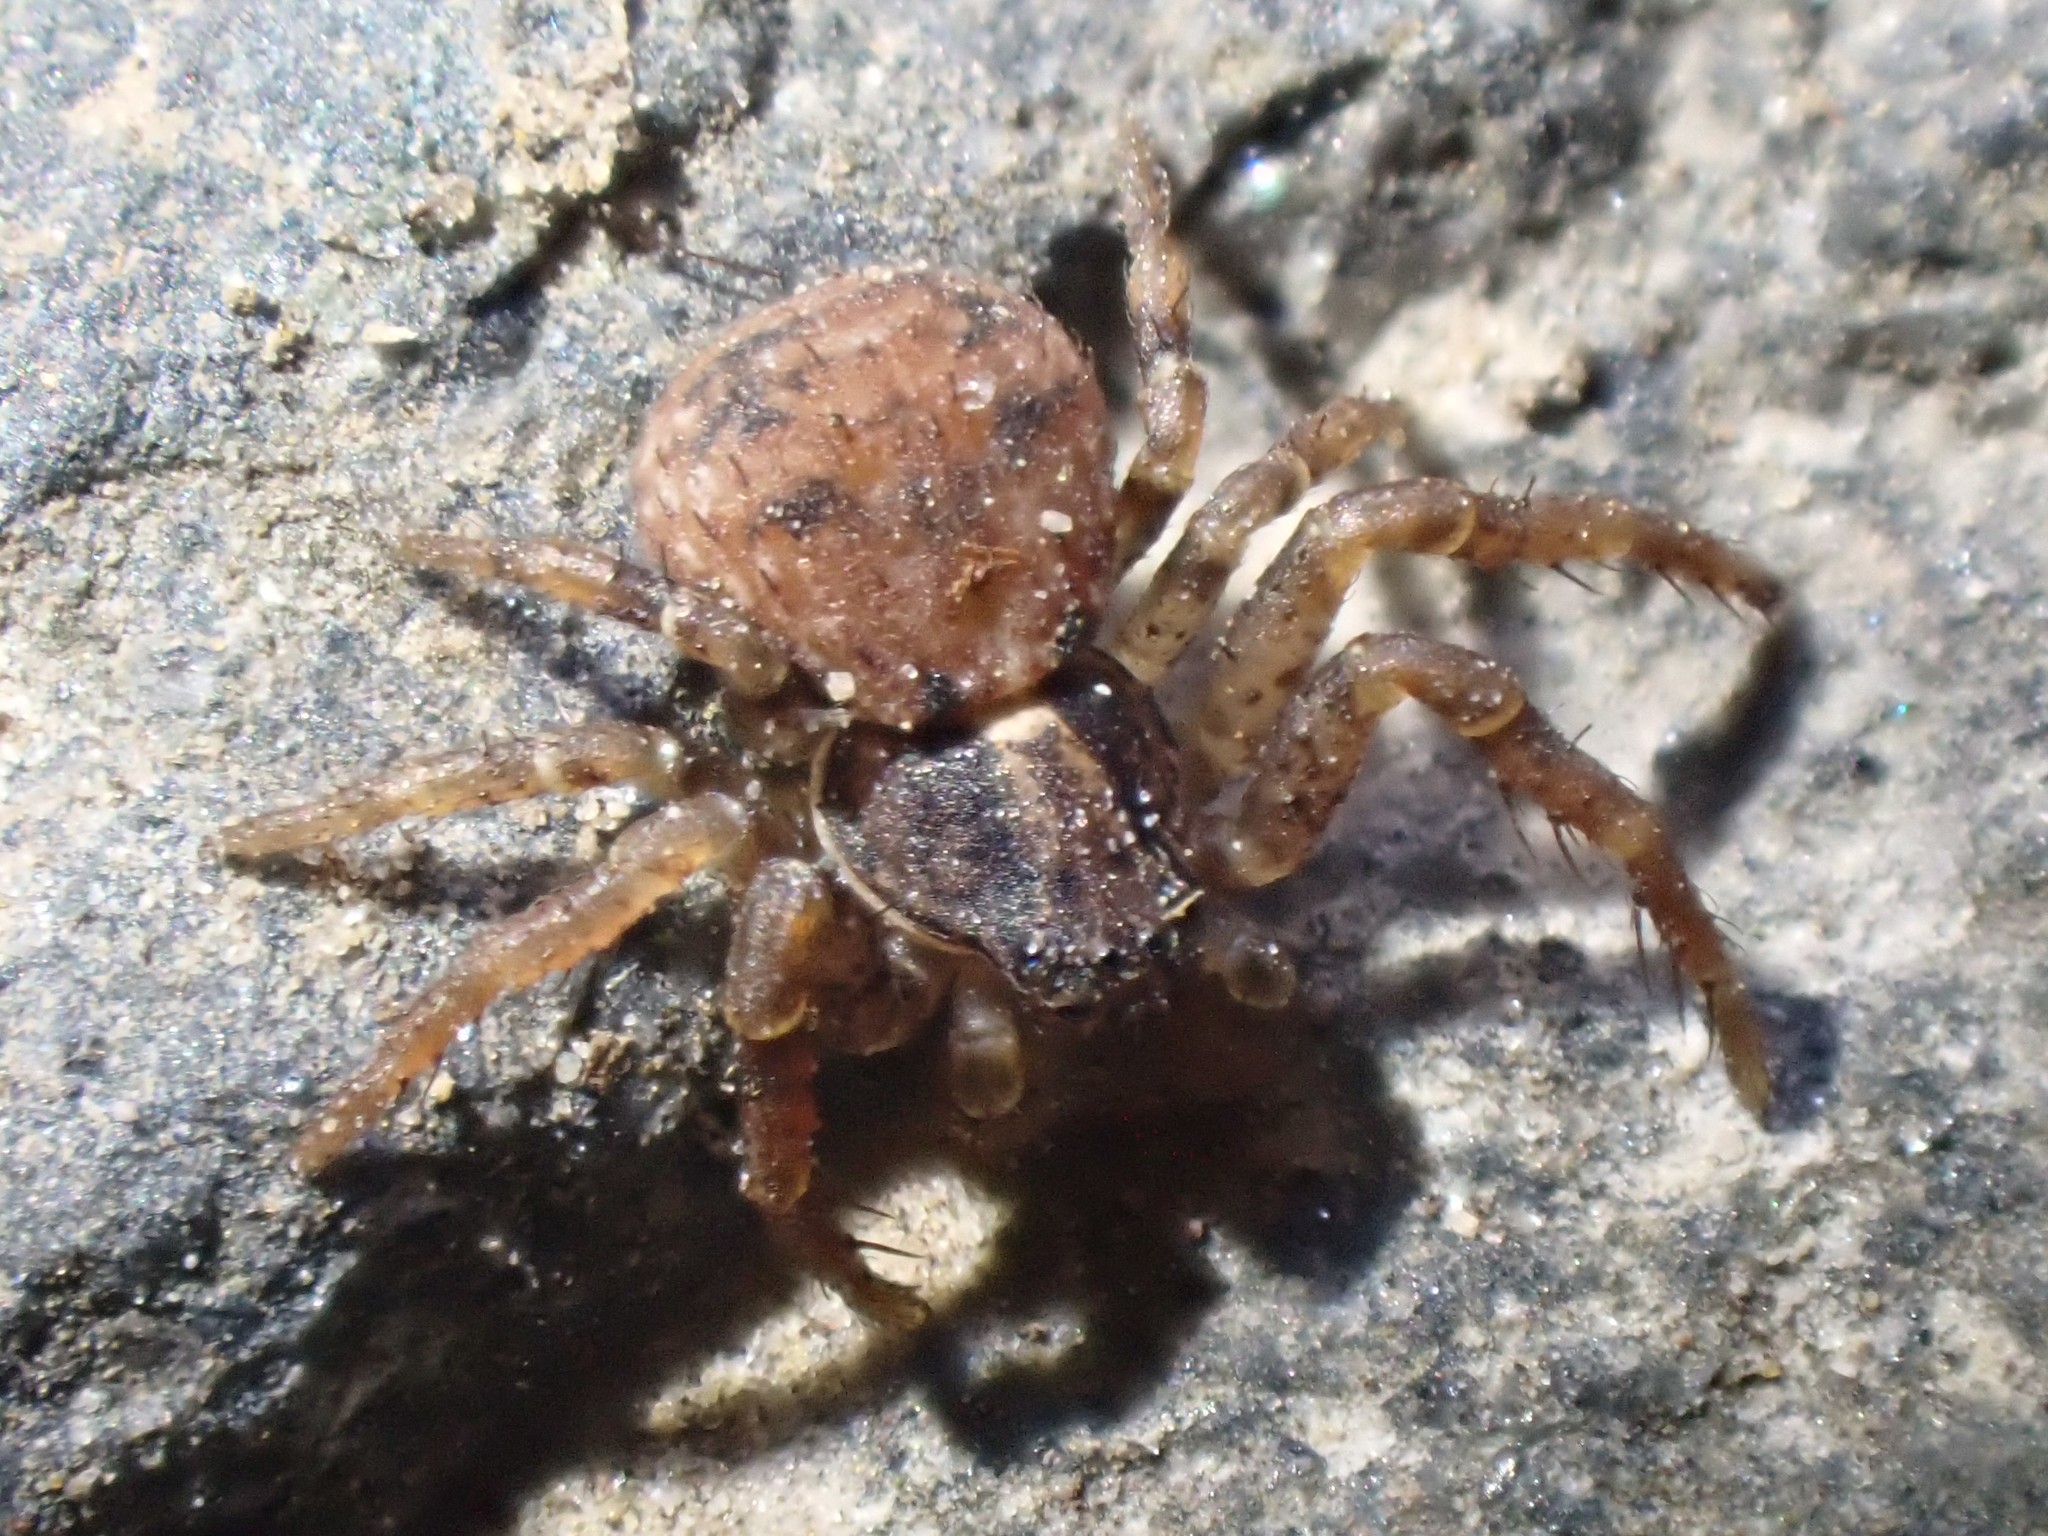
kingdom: Animalia
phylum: Arthropoda
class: Arachnida
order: Araneae
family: Thomisidae
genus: Ozyptila
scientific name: Ozyptila
